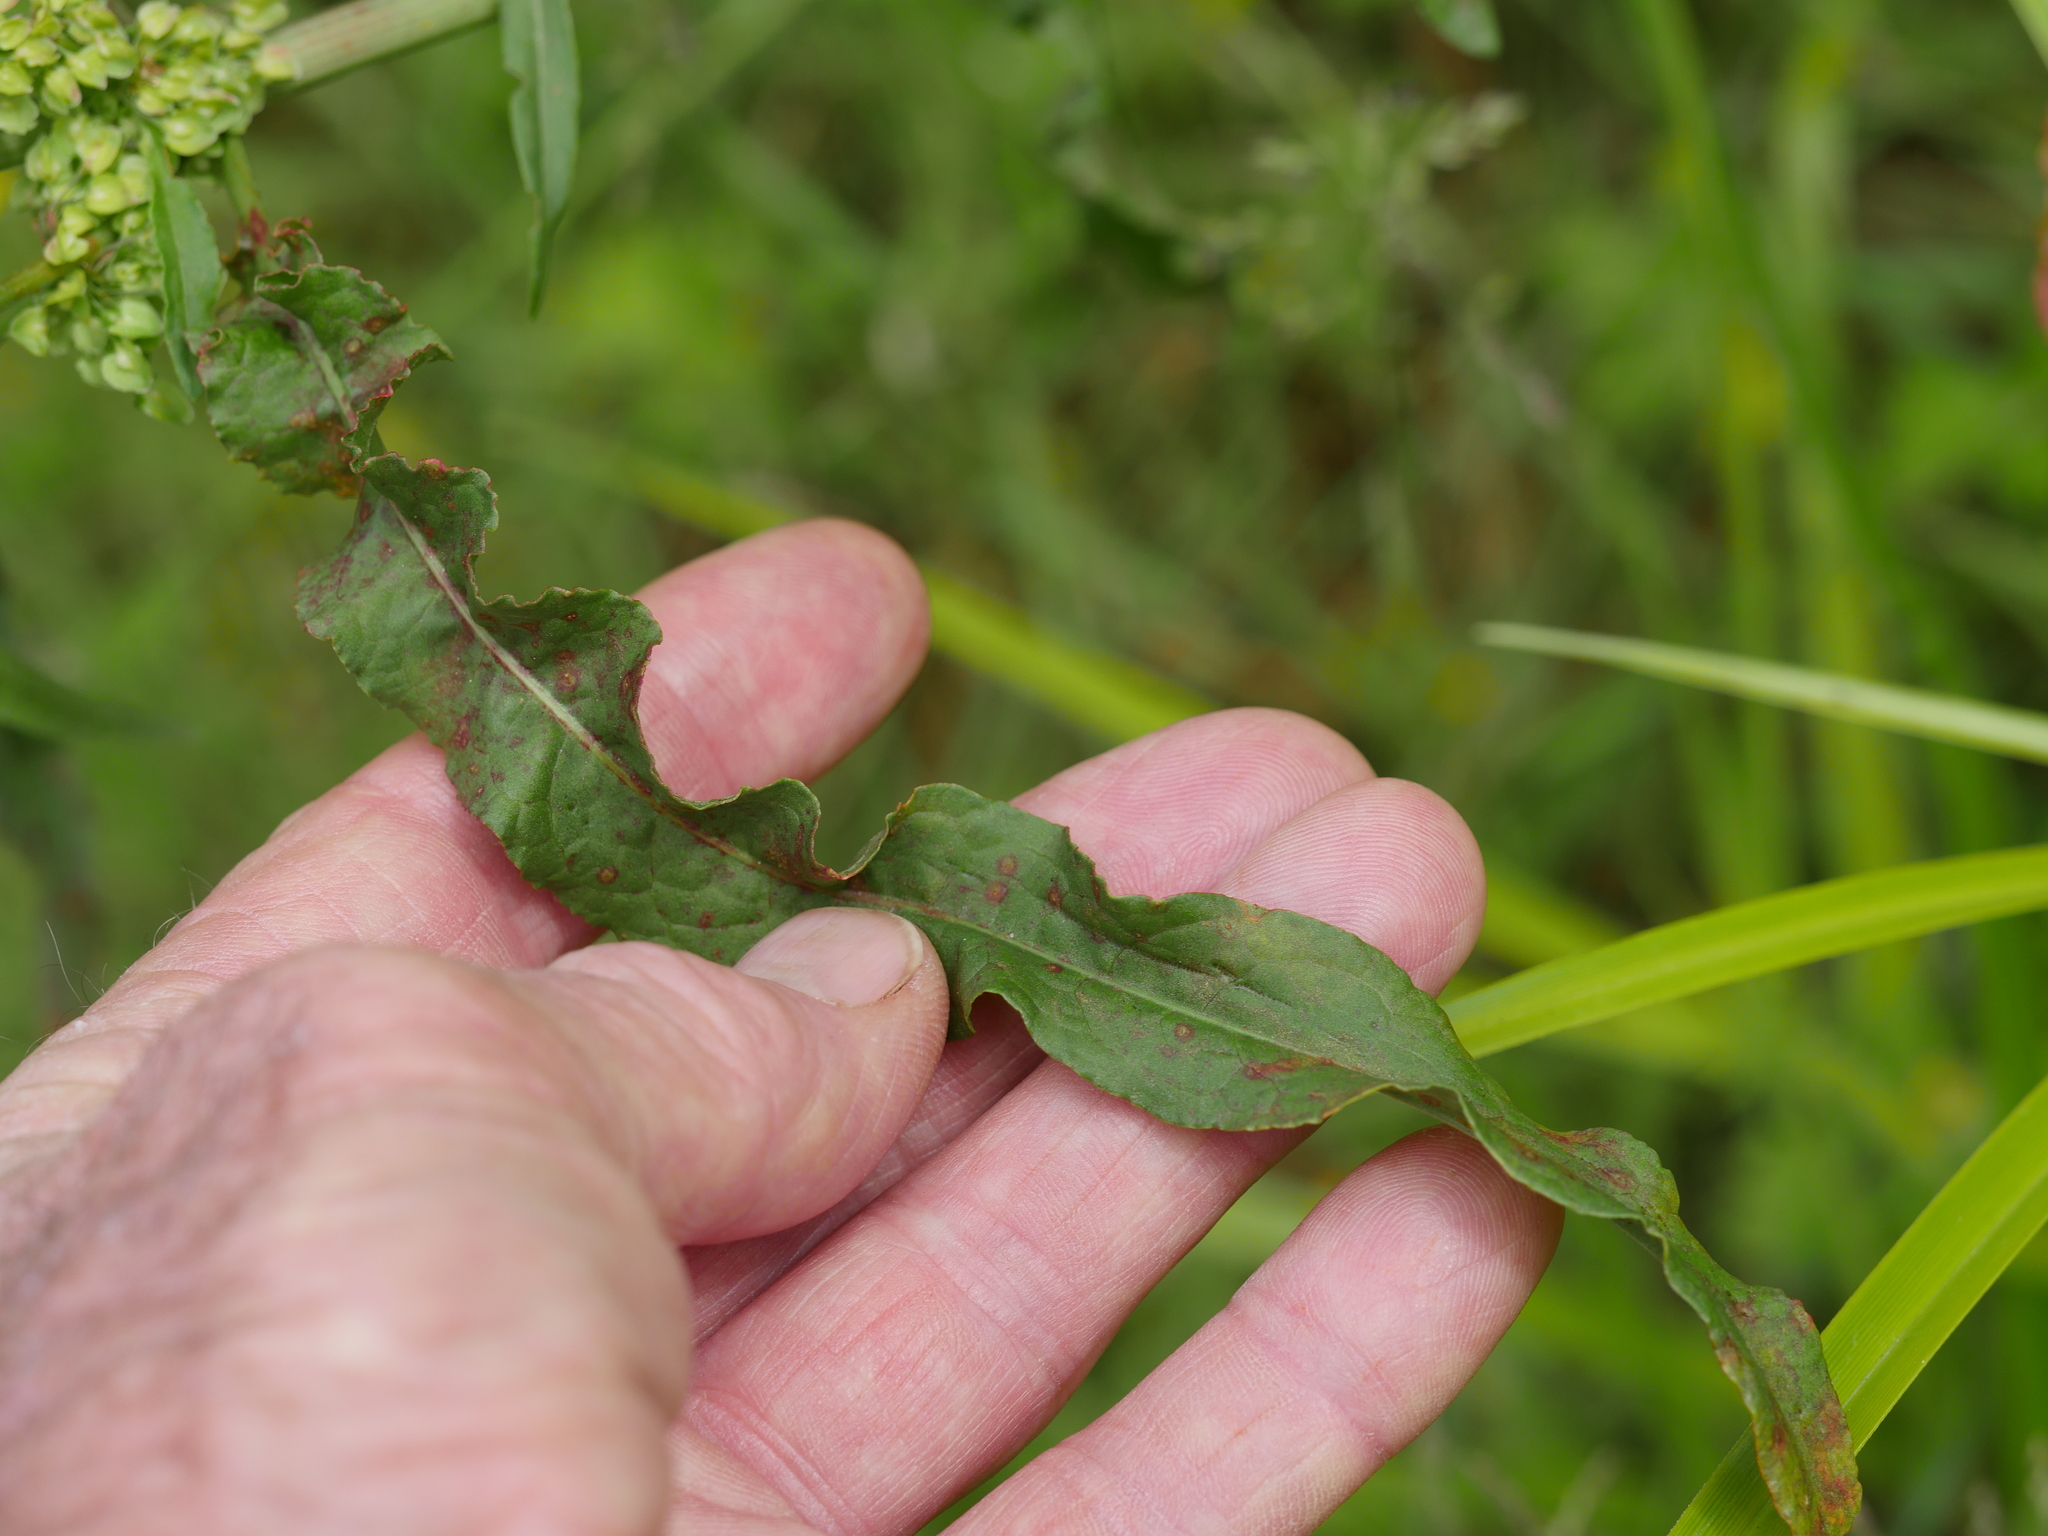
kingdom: Plantae
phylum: Tracheophyta
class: Magnoliopsida
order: Caryophyllales
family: Polygonaceae
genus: Rumex
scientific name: Rumex crispus
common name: Curled dock
